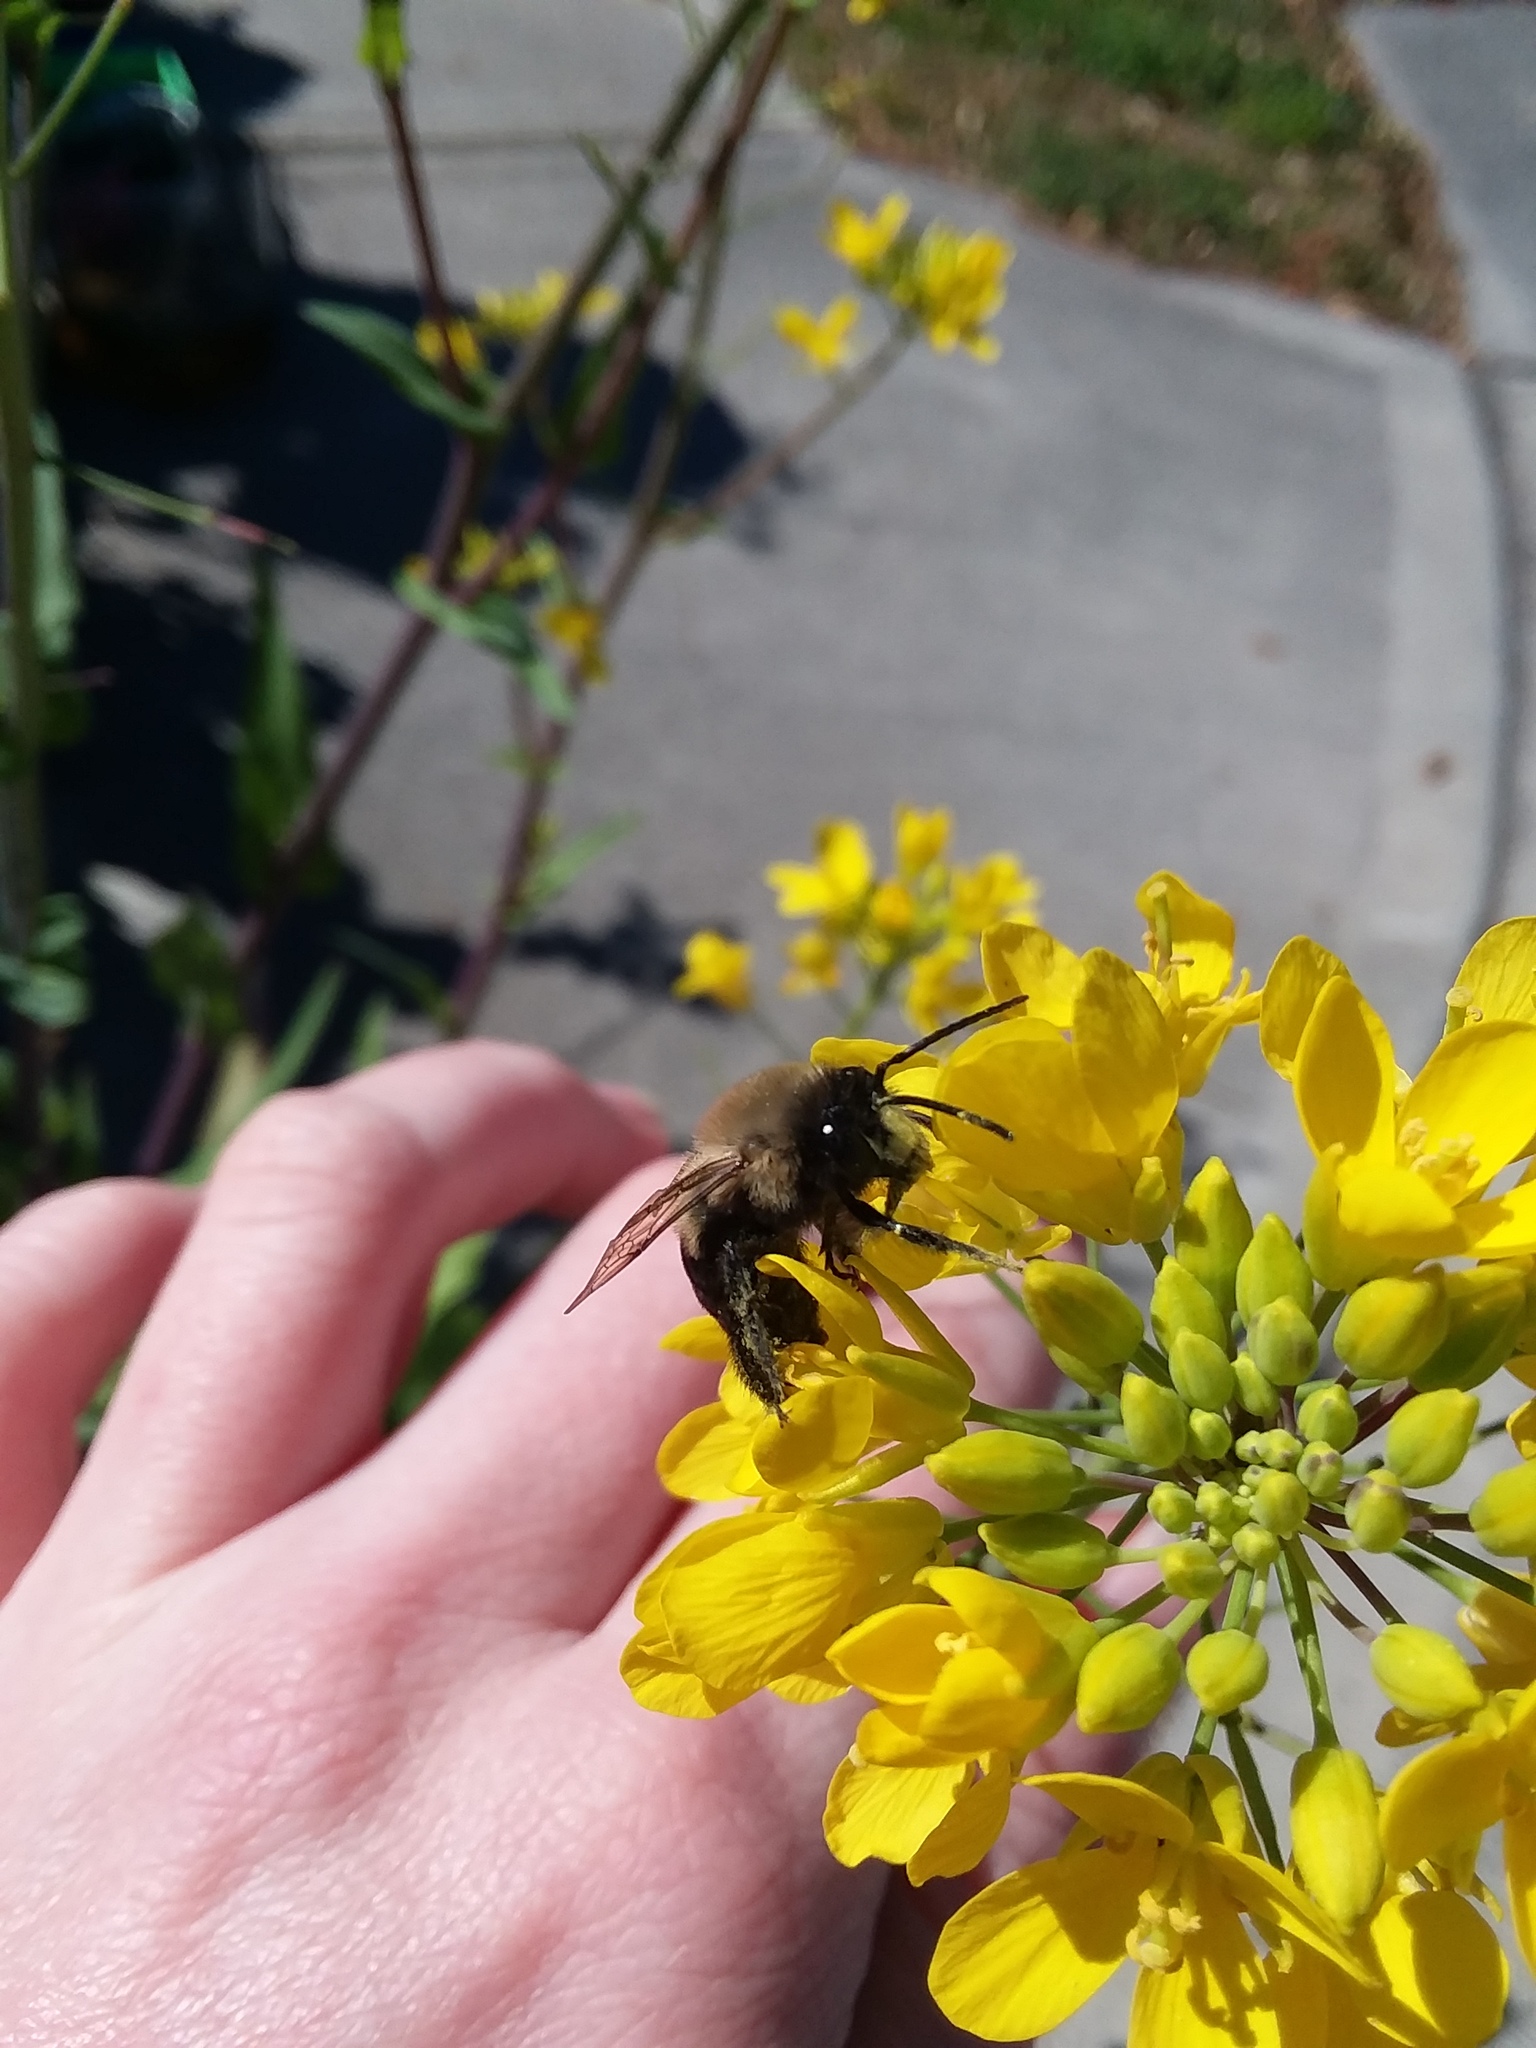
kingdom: Animalia
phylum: Arthropoda
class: Insecta
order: Hymenoptera
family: Apidae
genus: Habropoda
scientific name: Habropoda laboriosa
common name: Southeastern blueberry bee
